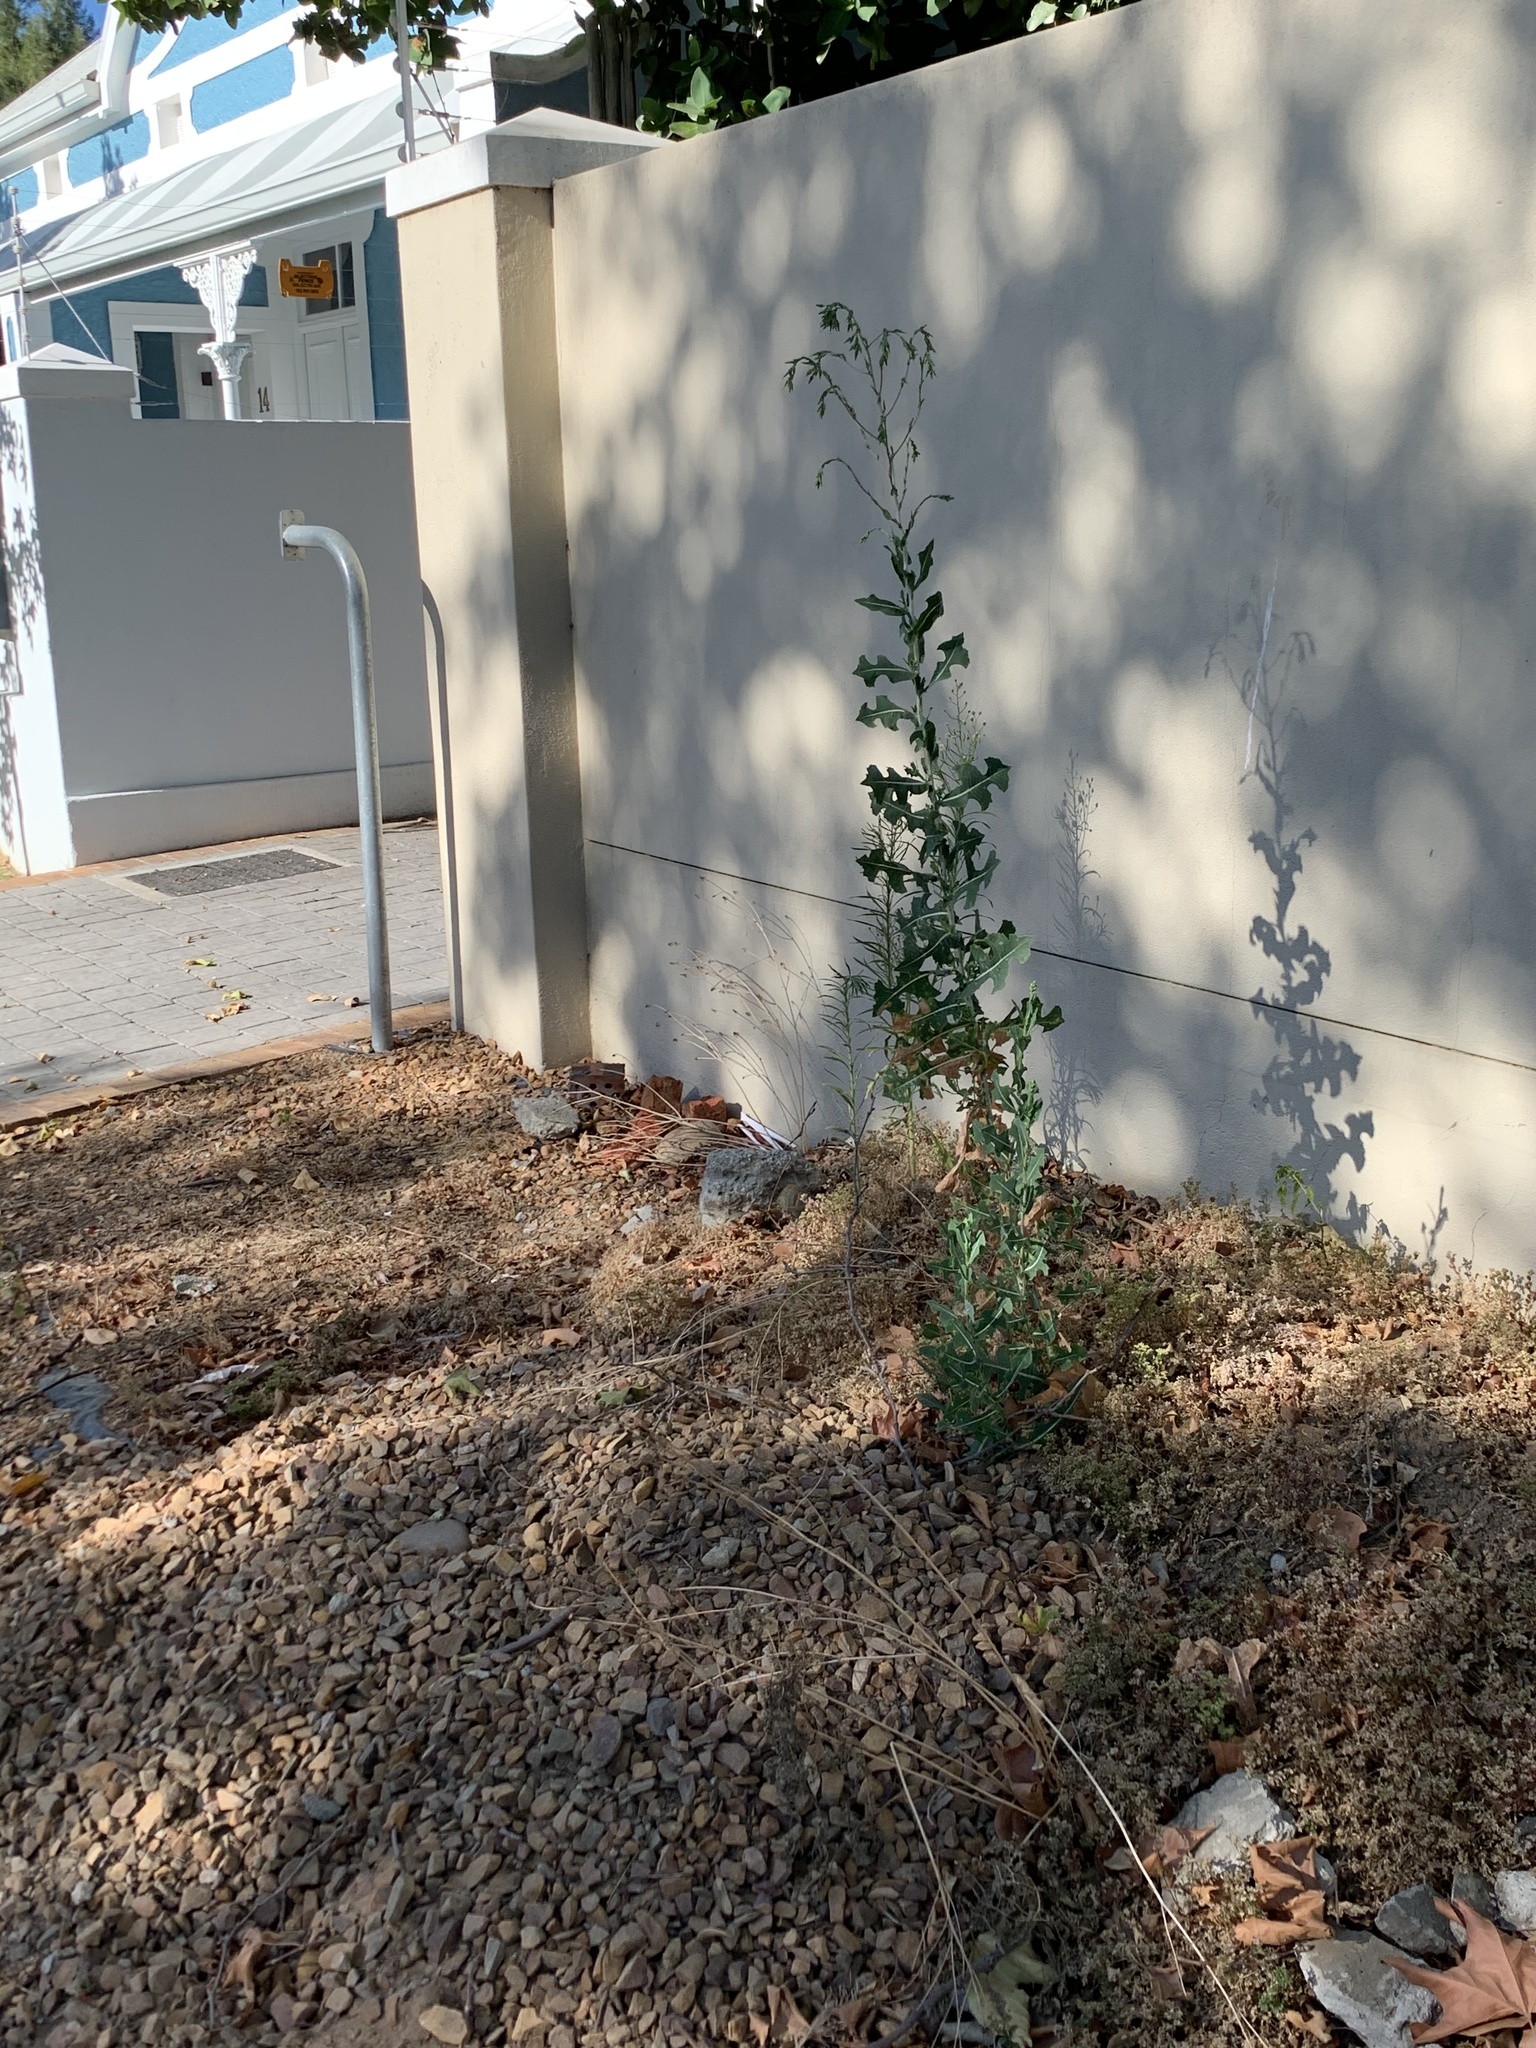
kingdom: Plantae
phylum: Tracheophyta
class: Magnoliopsida
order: Asterales
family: Asteraceae
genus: Lactuca
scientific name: Lactuca serriola
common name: Prickly lettuce
